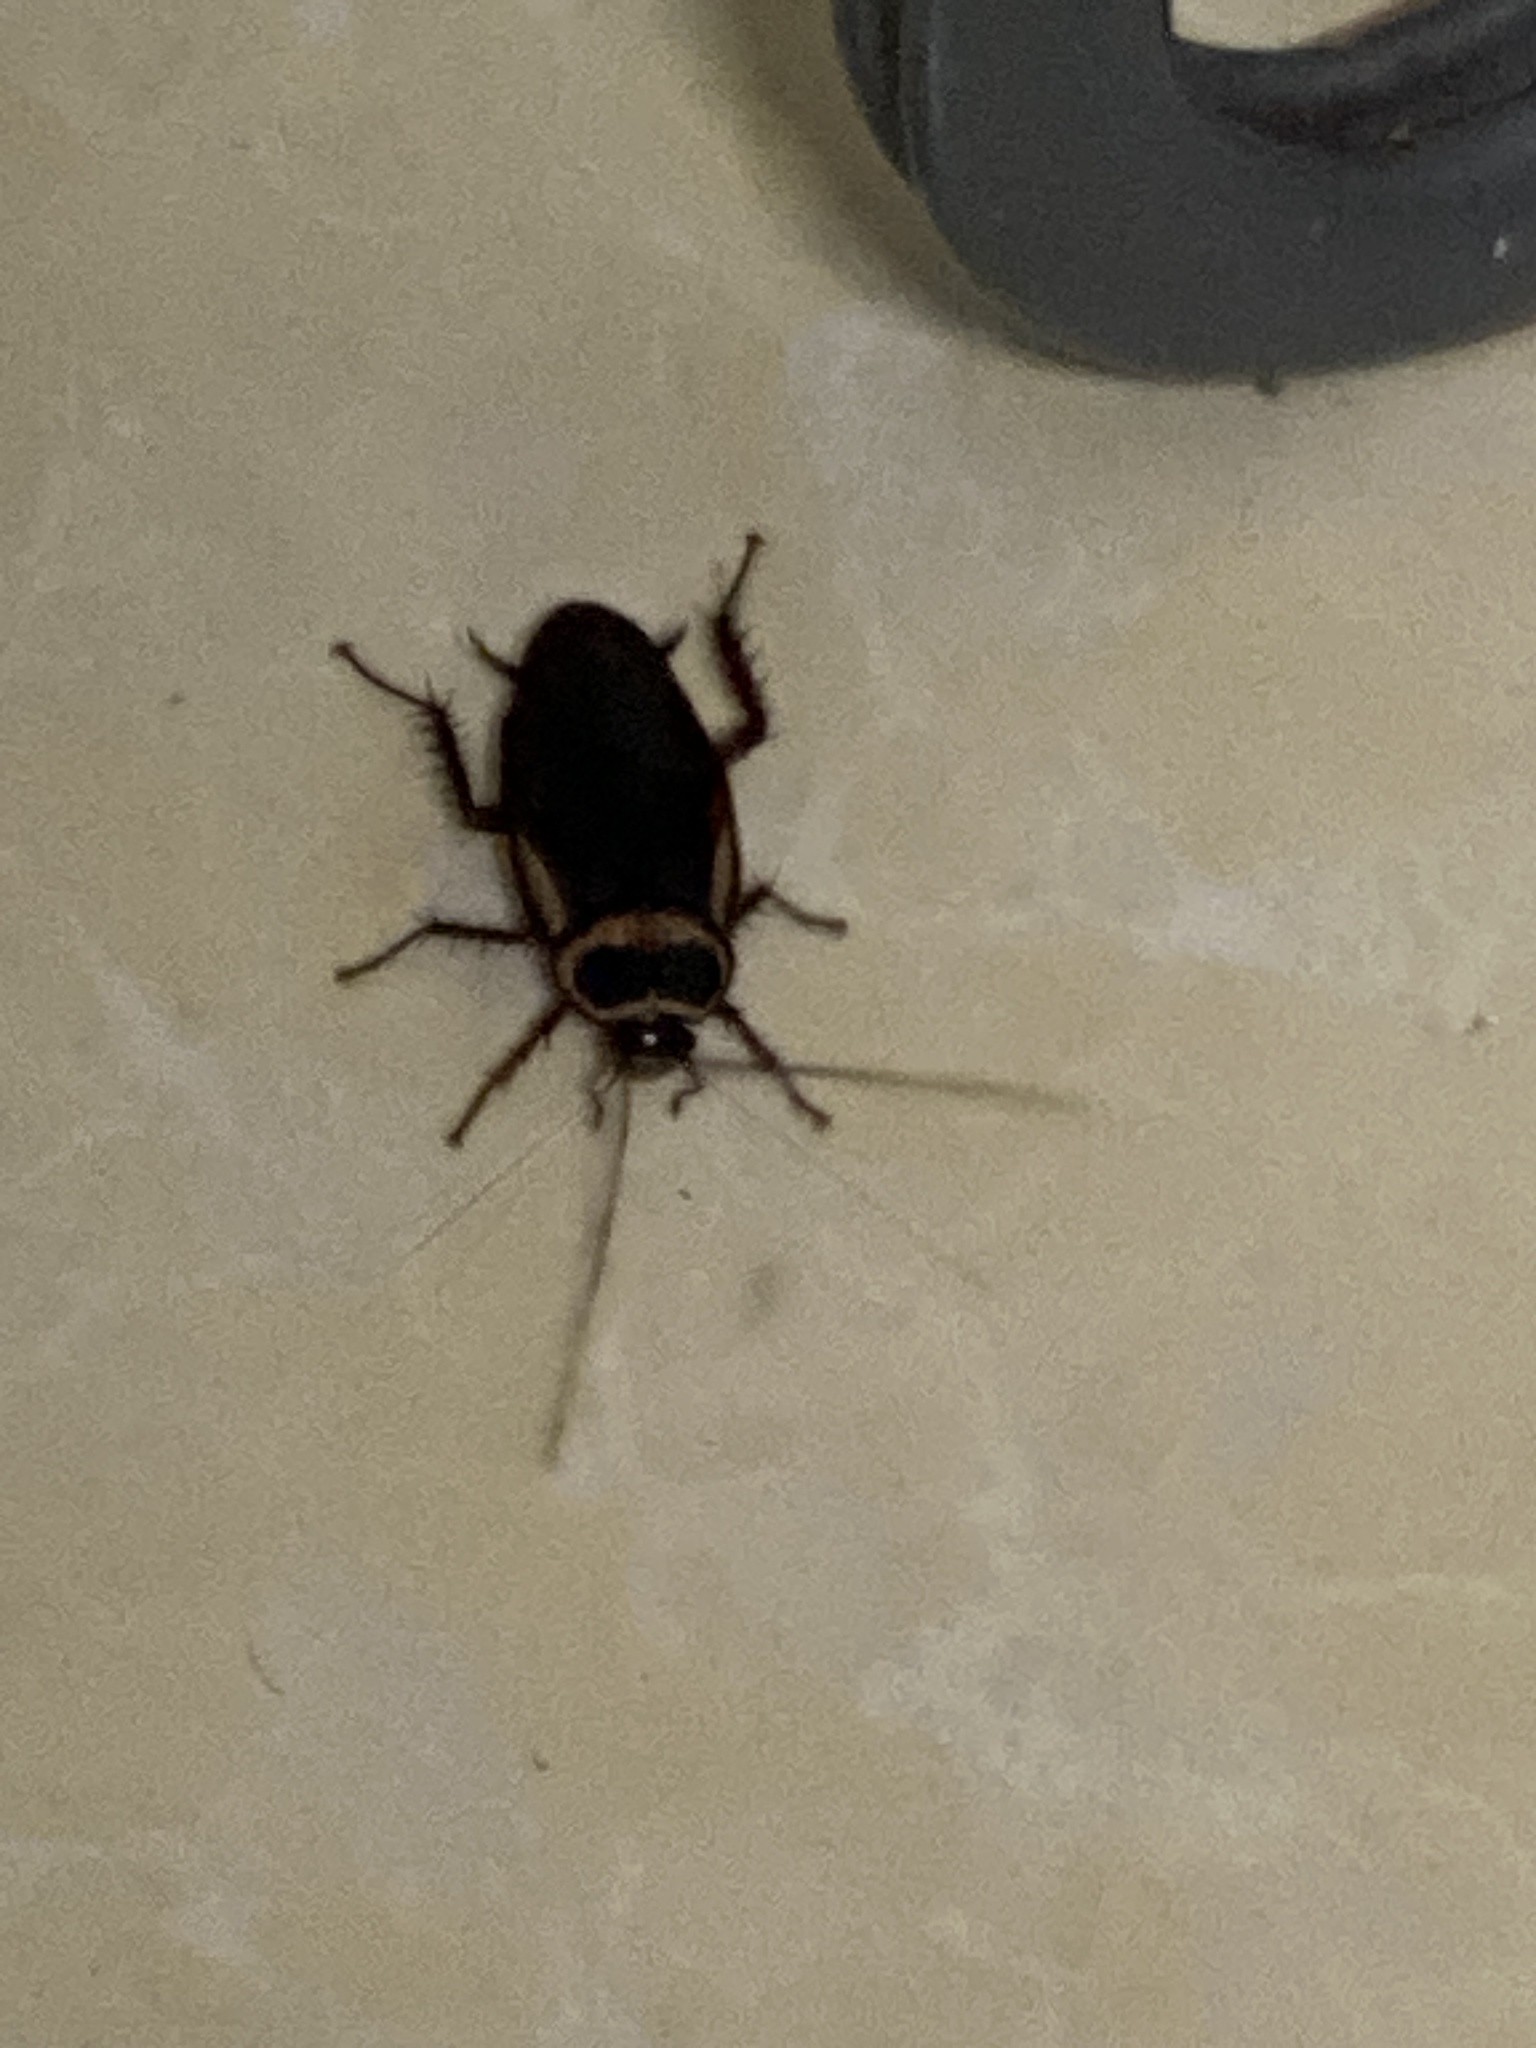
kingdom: Animalia
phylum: Arthropoda
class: Insecta
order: Blattodea
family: Blattidae
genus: Periplaneta
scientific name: Periplaneta australasiae
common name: Australian cockroach
